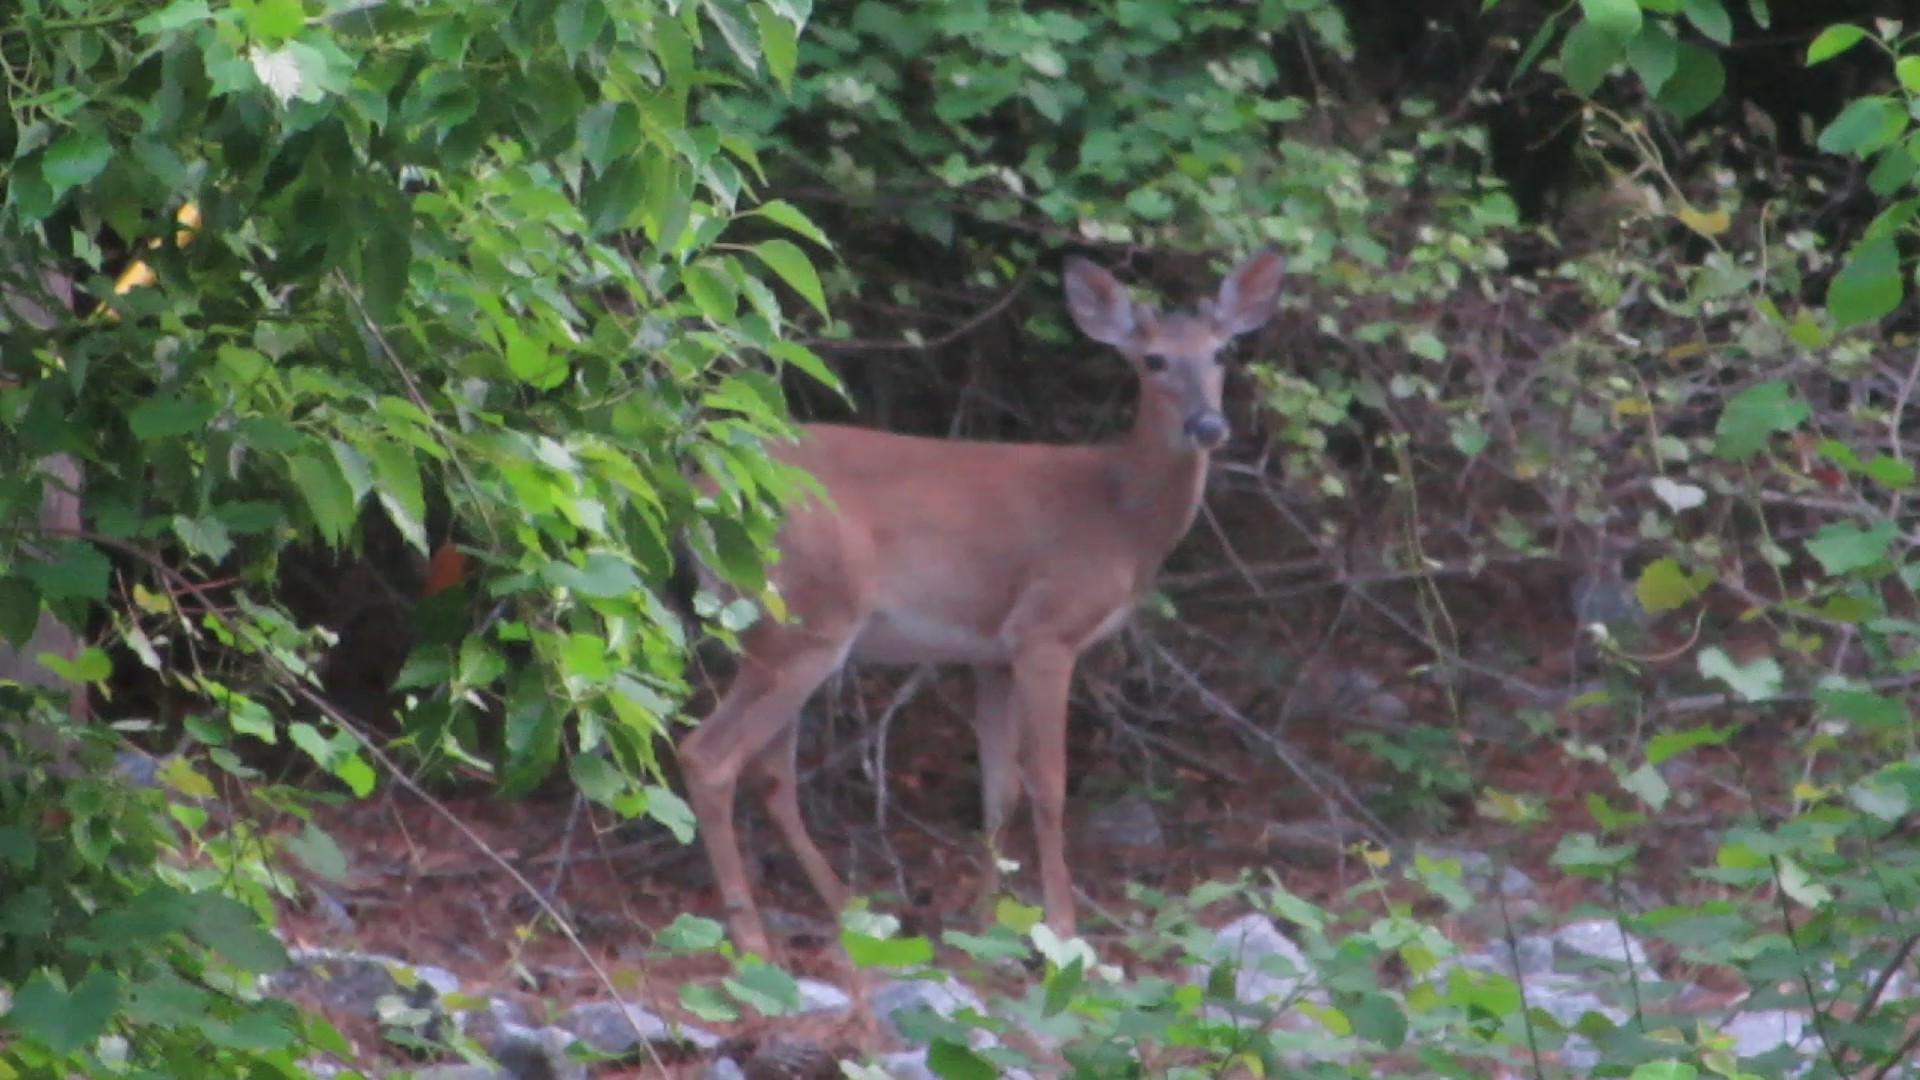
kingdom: Animalia
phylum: Chordata
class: Mammalia
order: Artiodactyla
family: Cervidae
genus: Odocoileus
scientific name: Odocoileus virginianus
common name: White-tailed deer
